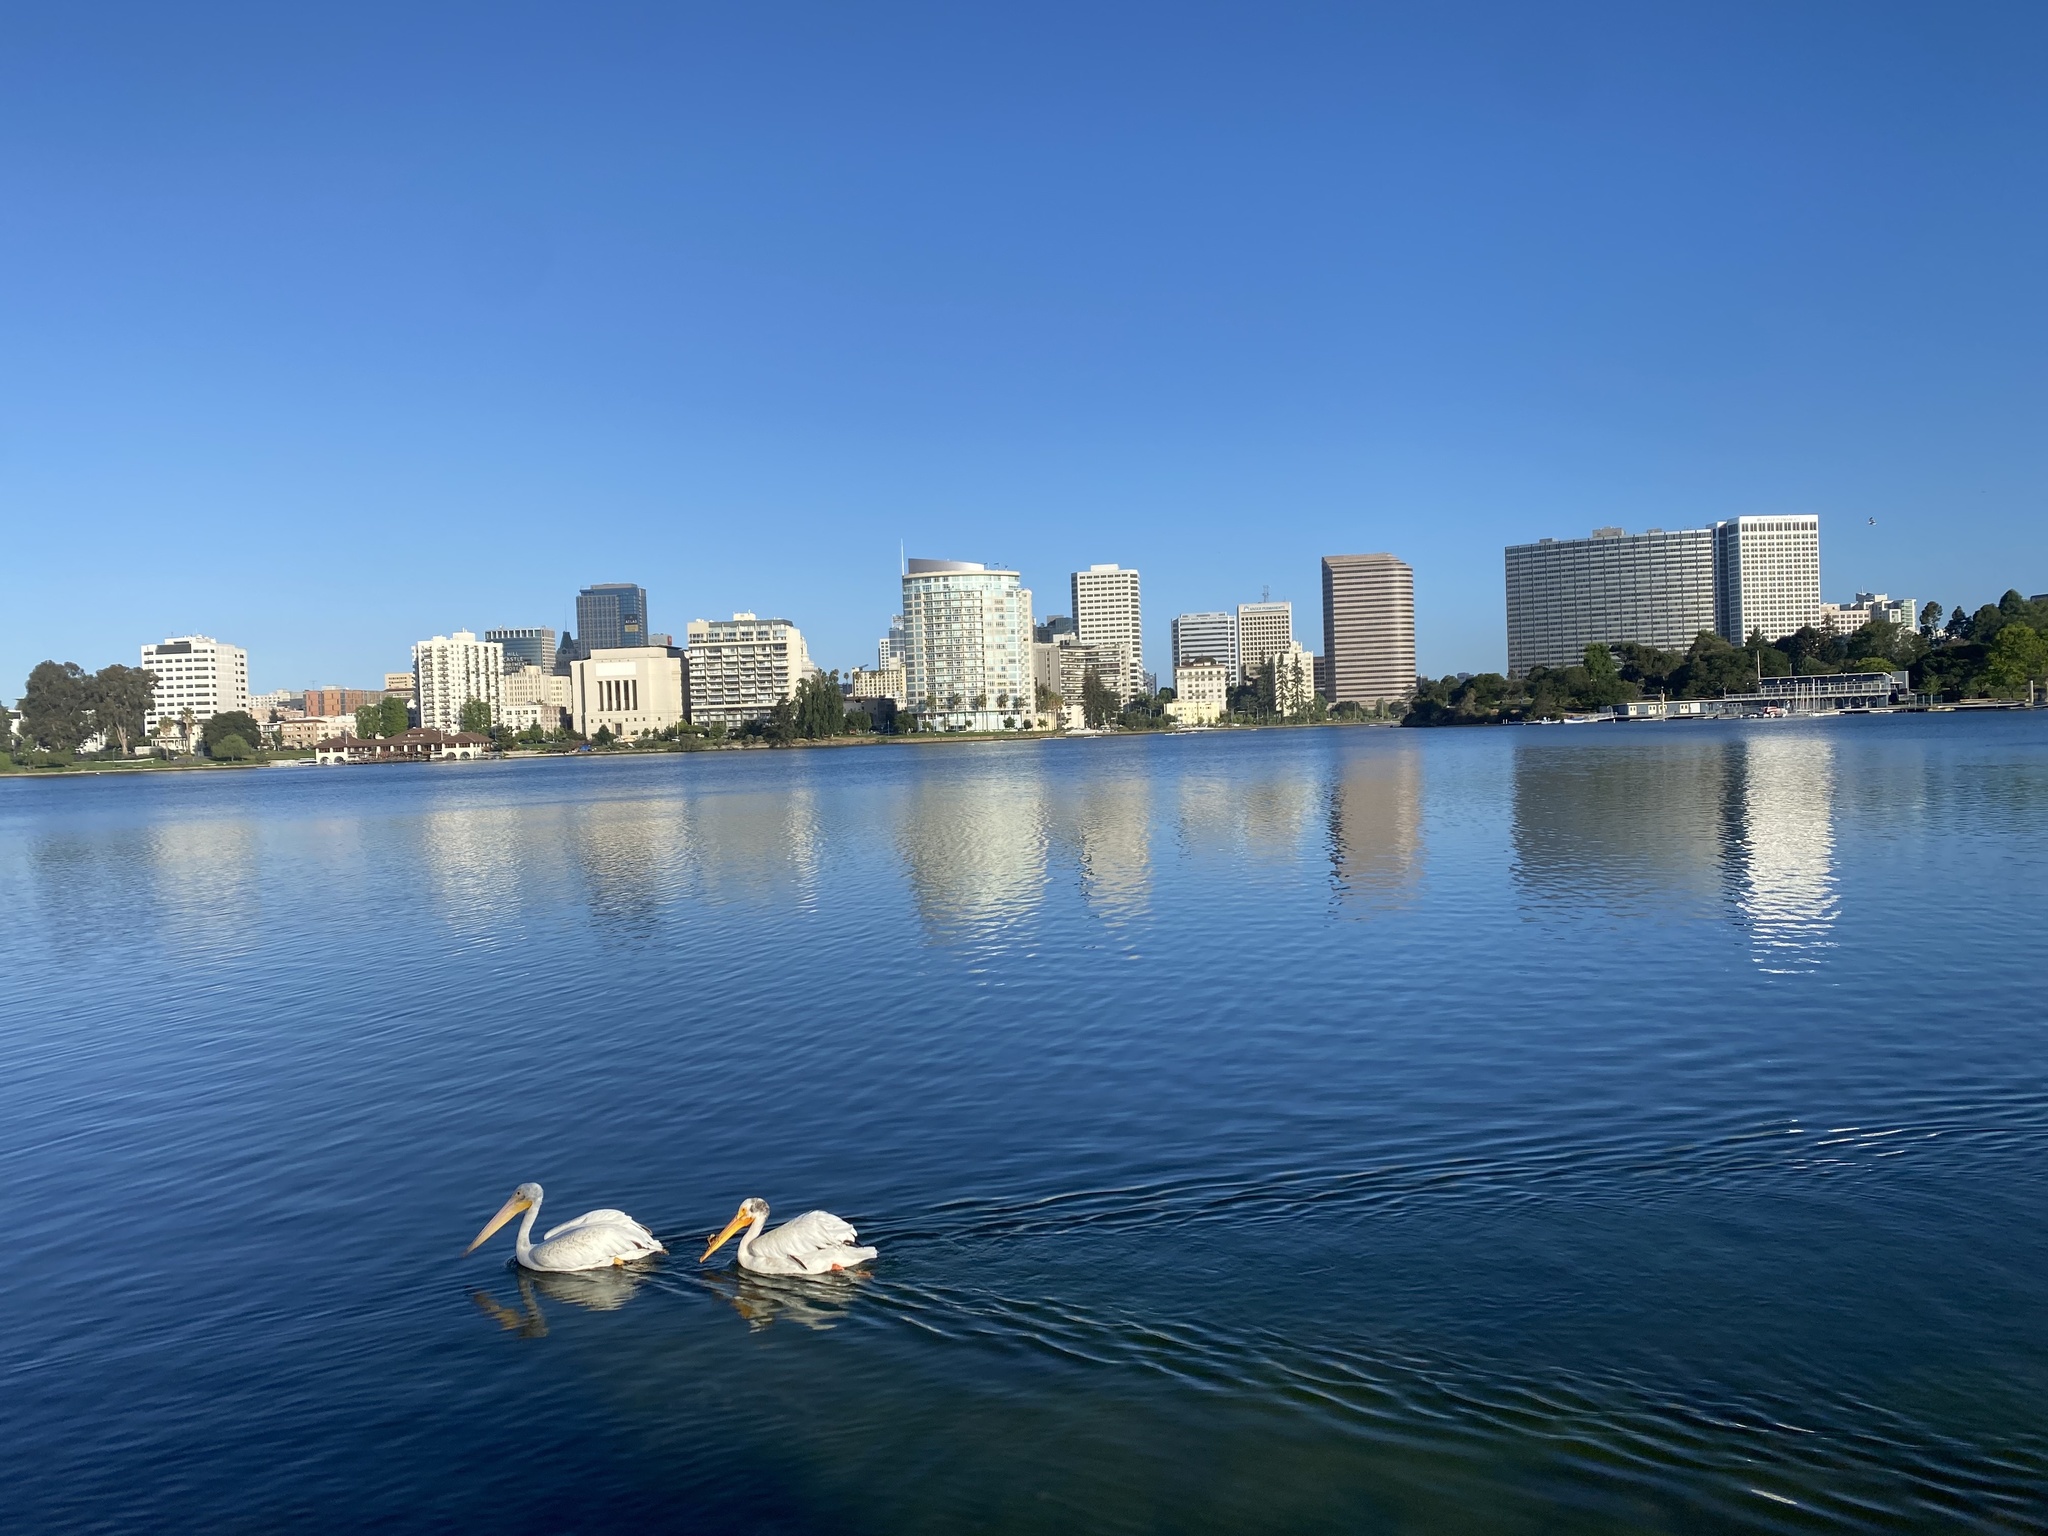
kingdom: Animalia
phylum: Chordata
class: Aves
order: Pelecaniformes
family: Pelecanidae
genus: Pelecanus
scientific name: Pelecanus erythrorhynchos
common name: American white pelican
